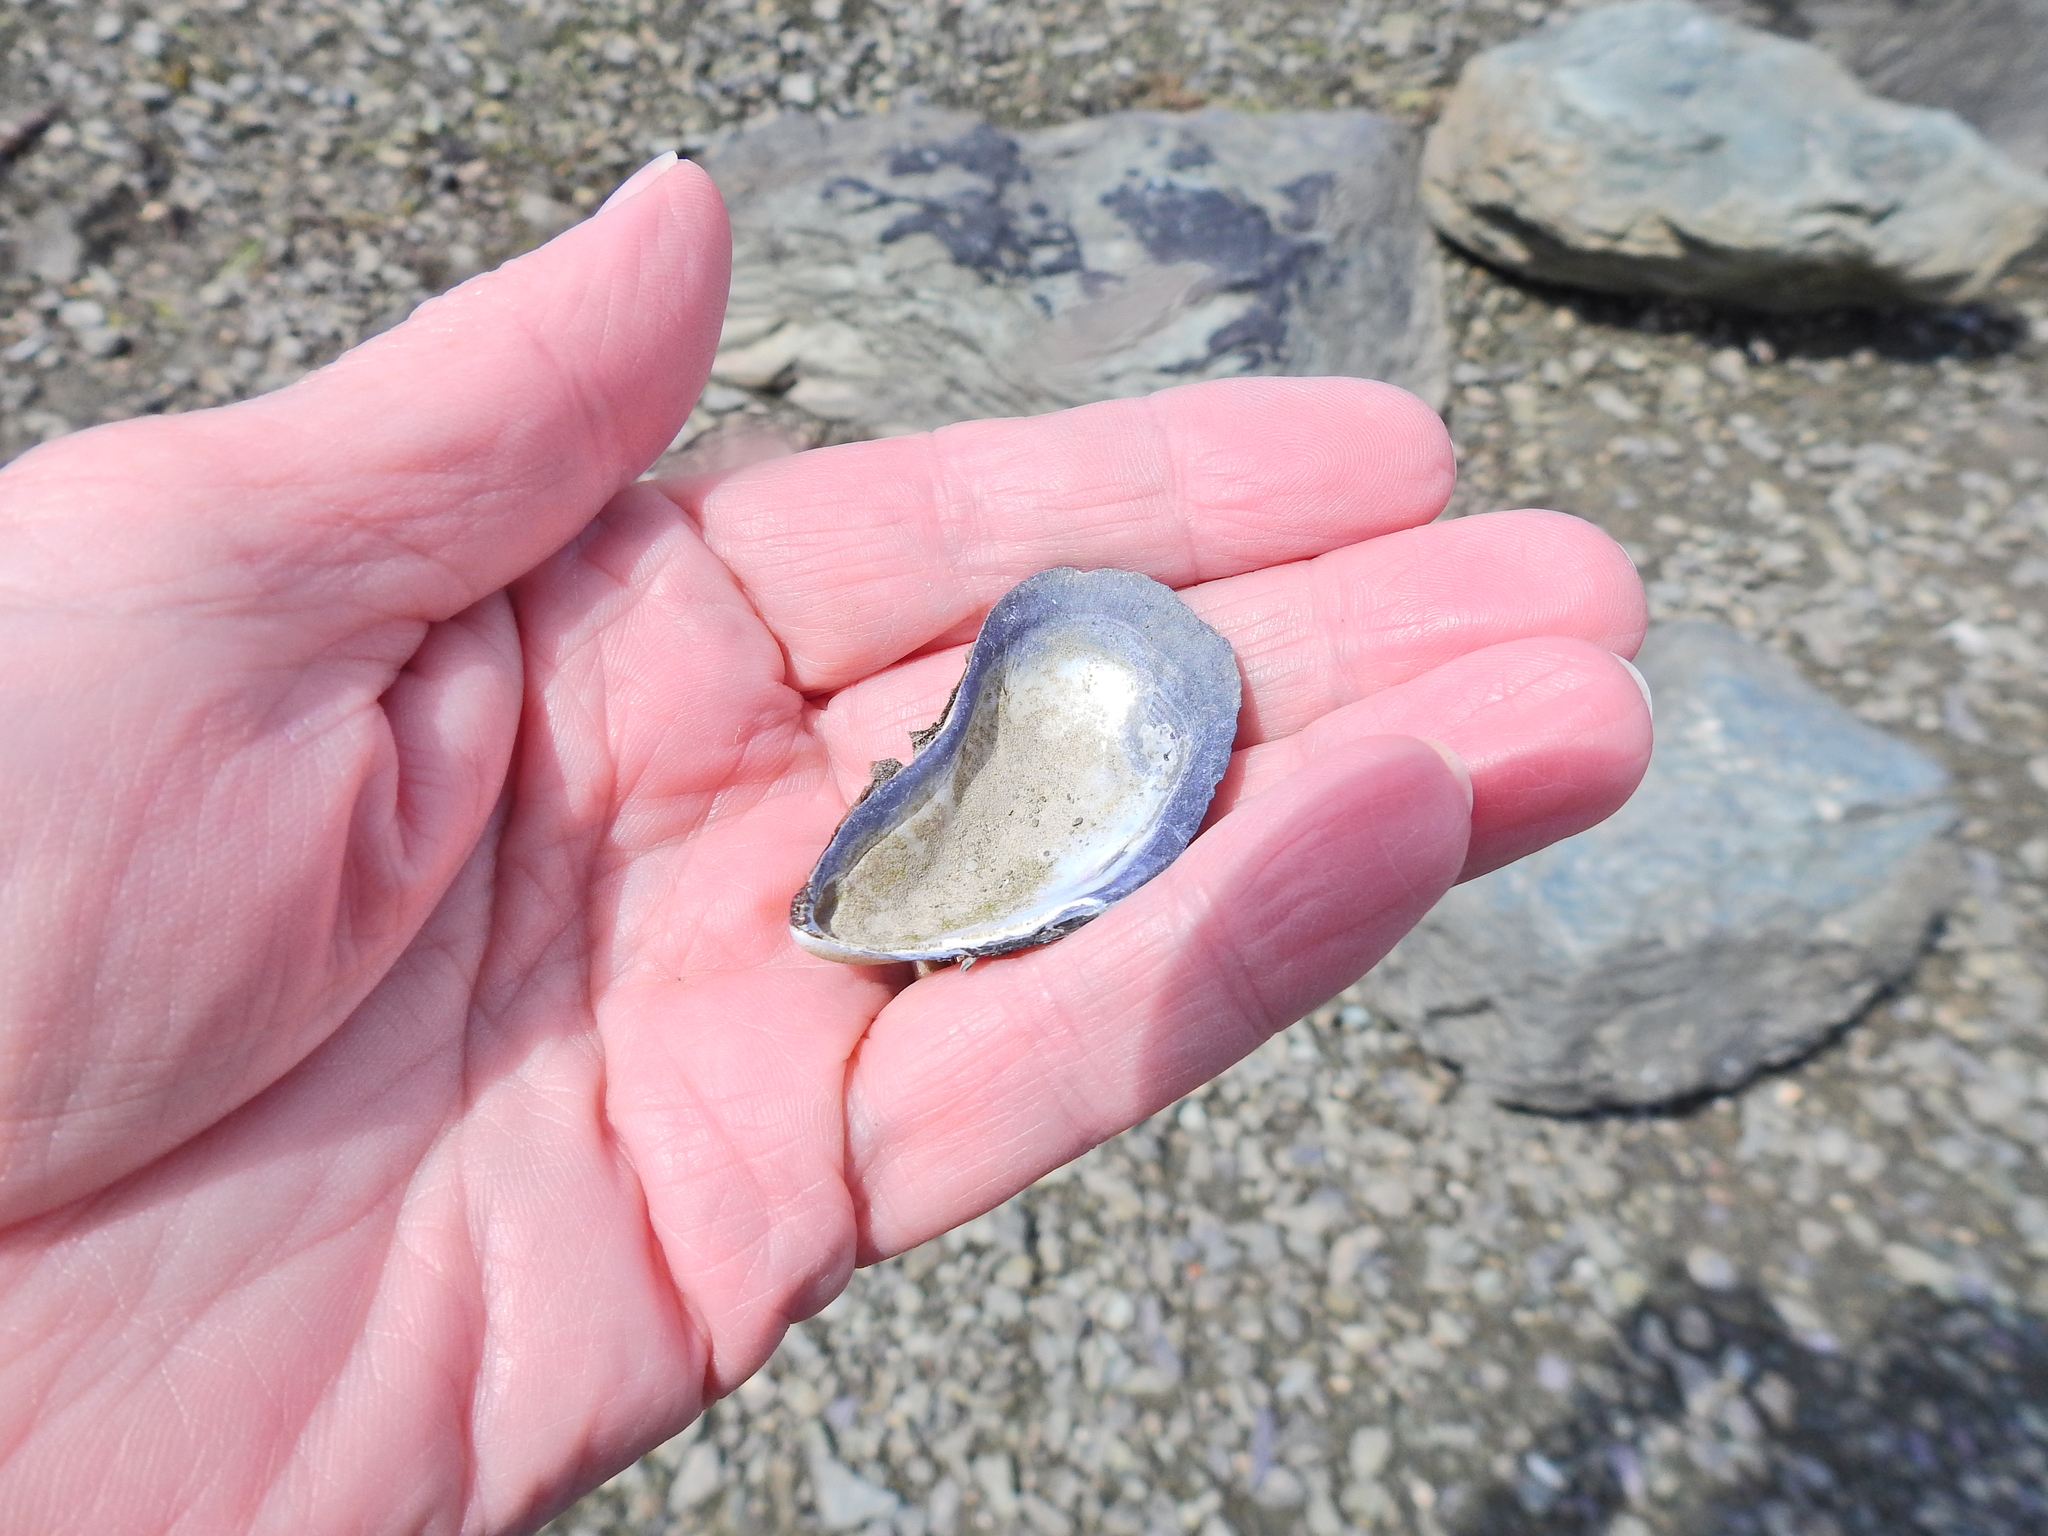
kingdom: Animalia
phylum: Mollusca
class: Bivalvia
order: Mytilida
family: Mytilidae
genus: Mytilus
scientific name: Mytilus edulis
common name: Blue mussel
